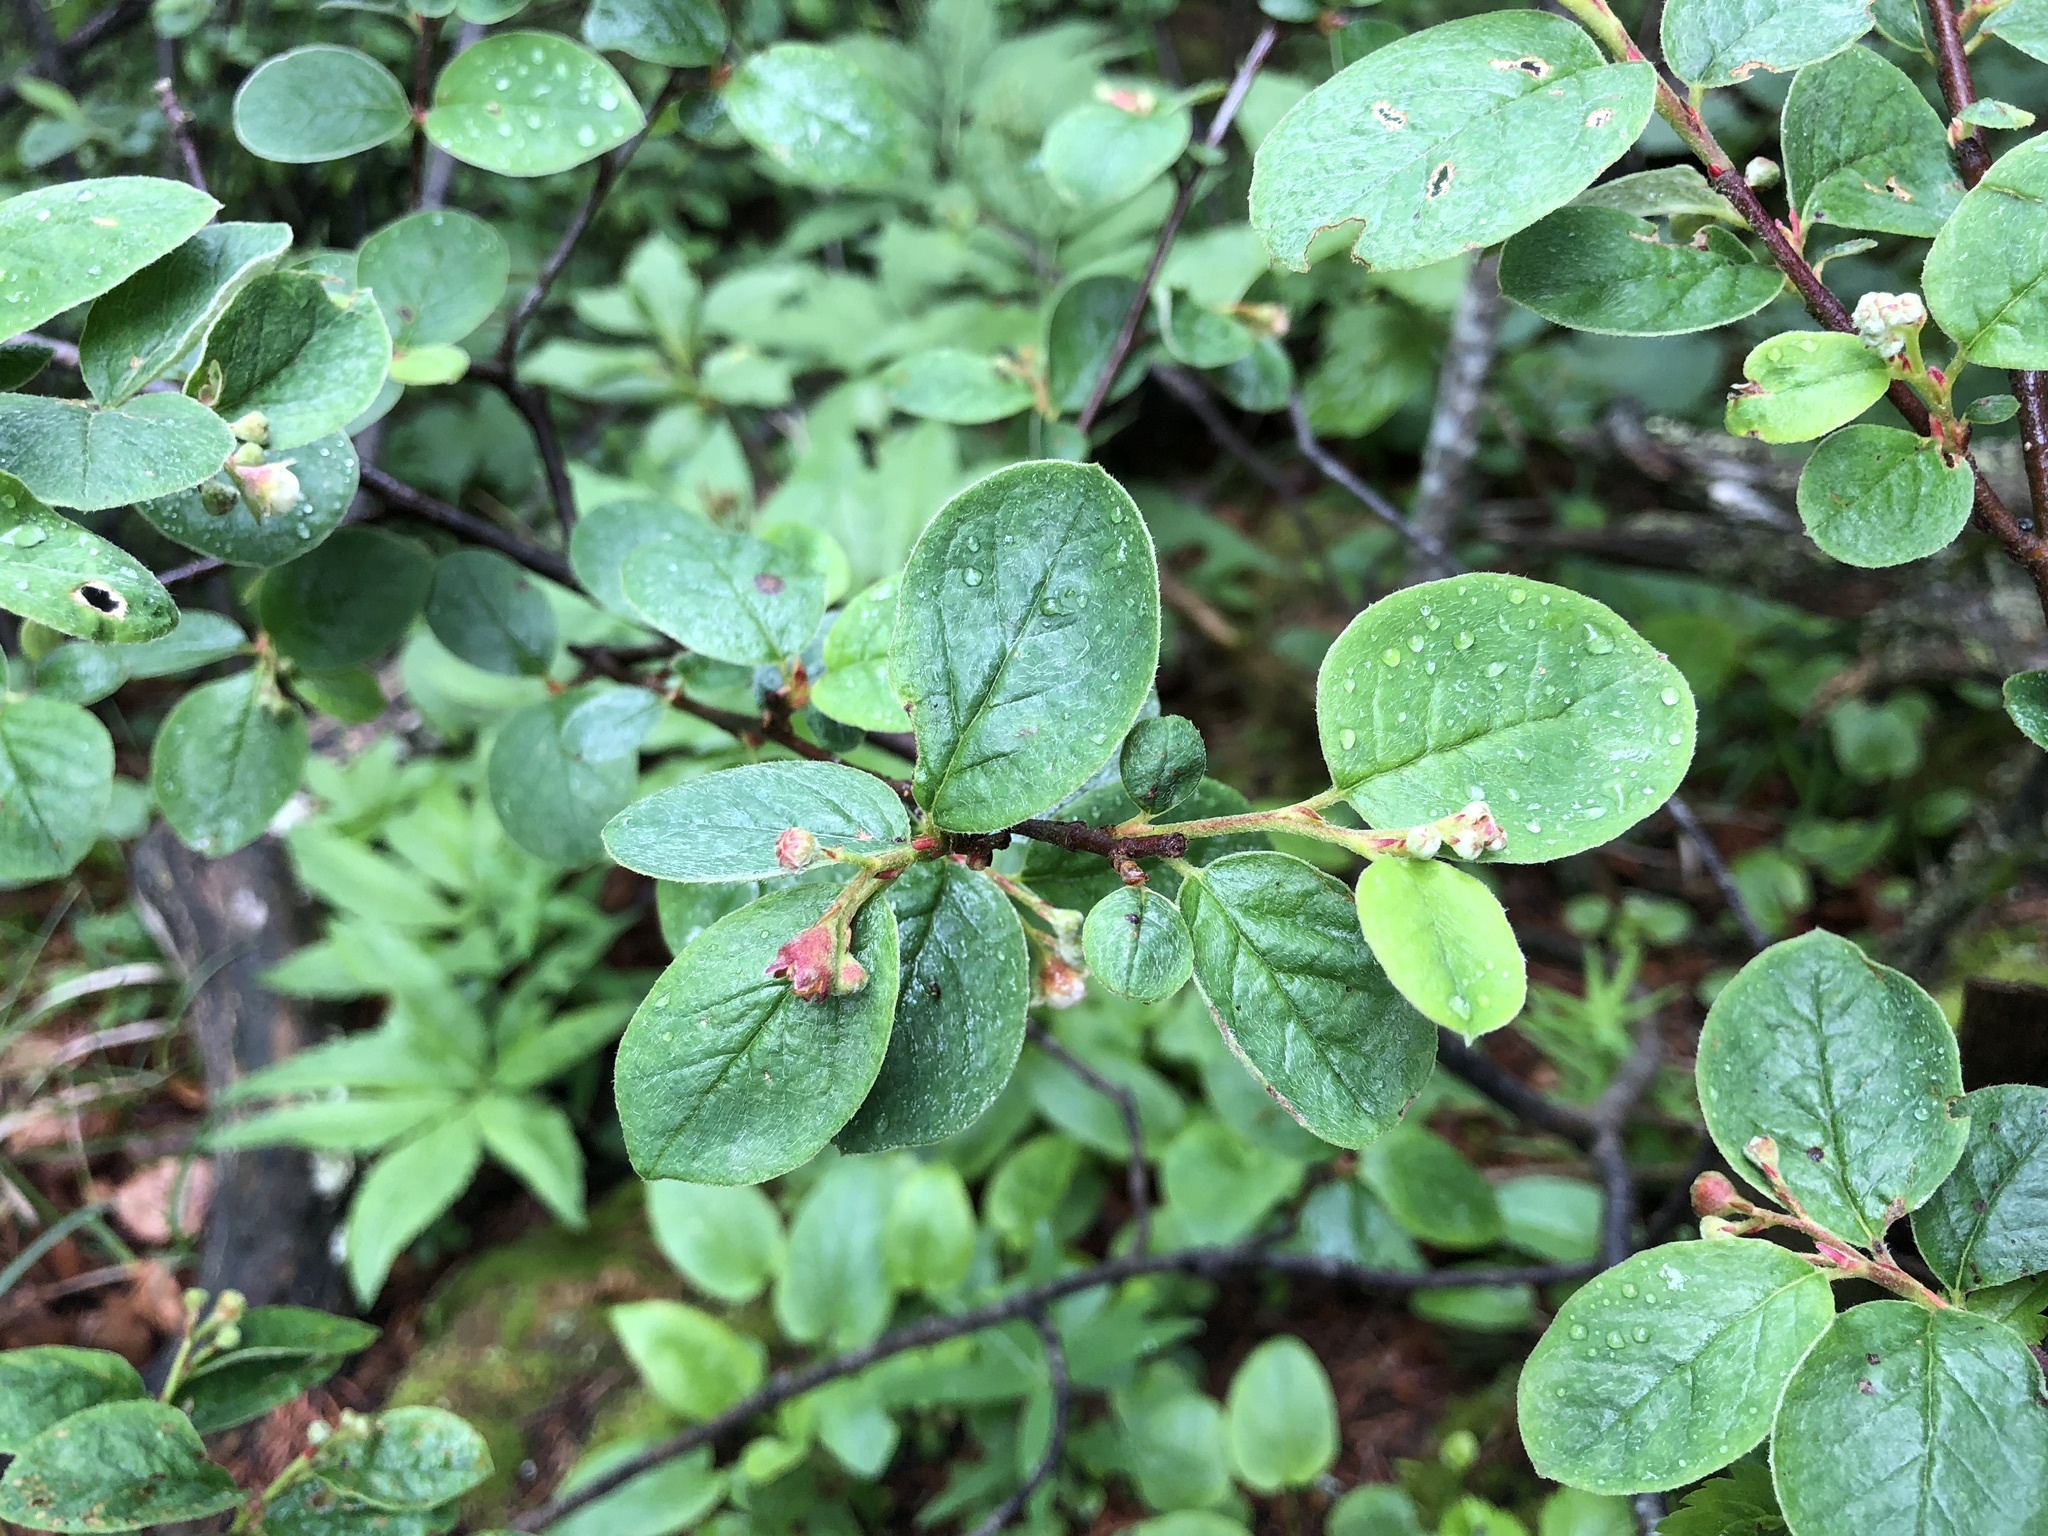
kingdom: Plantae
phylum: Tracheophyta
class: Magnoliopsida
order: Rosales
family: Rosaceae
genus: Cotoneaster
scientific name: Cotoneaster tomentosus
